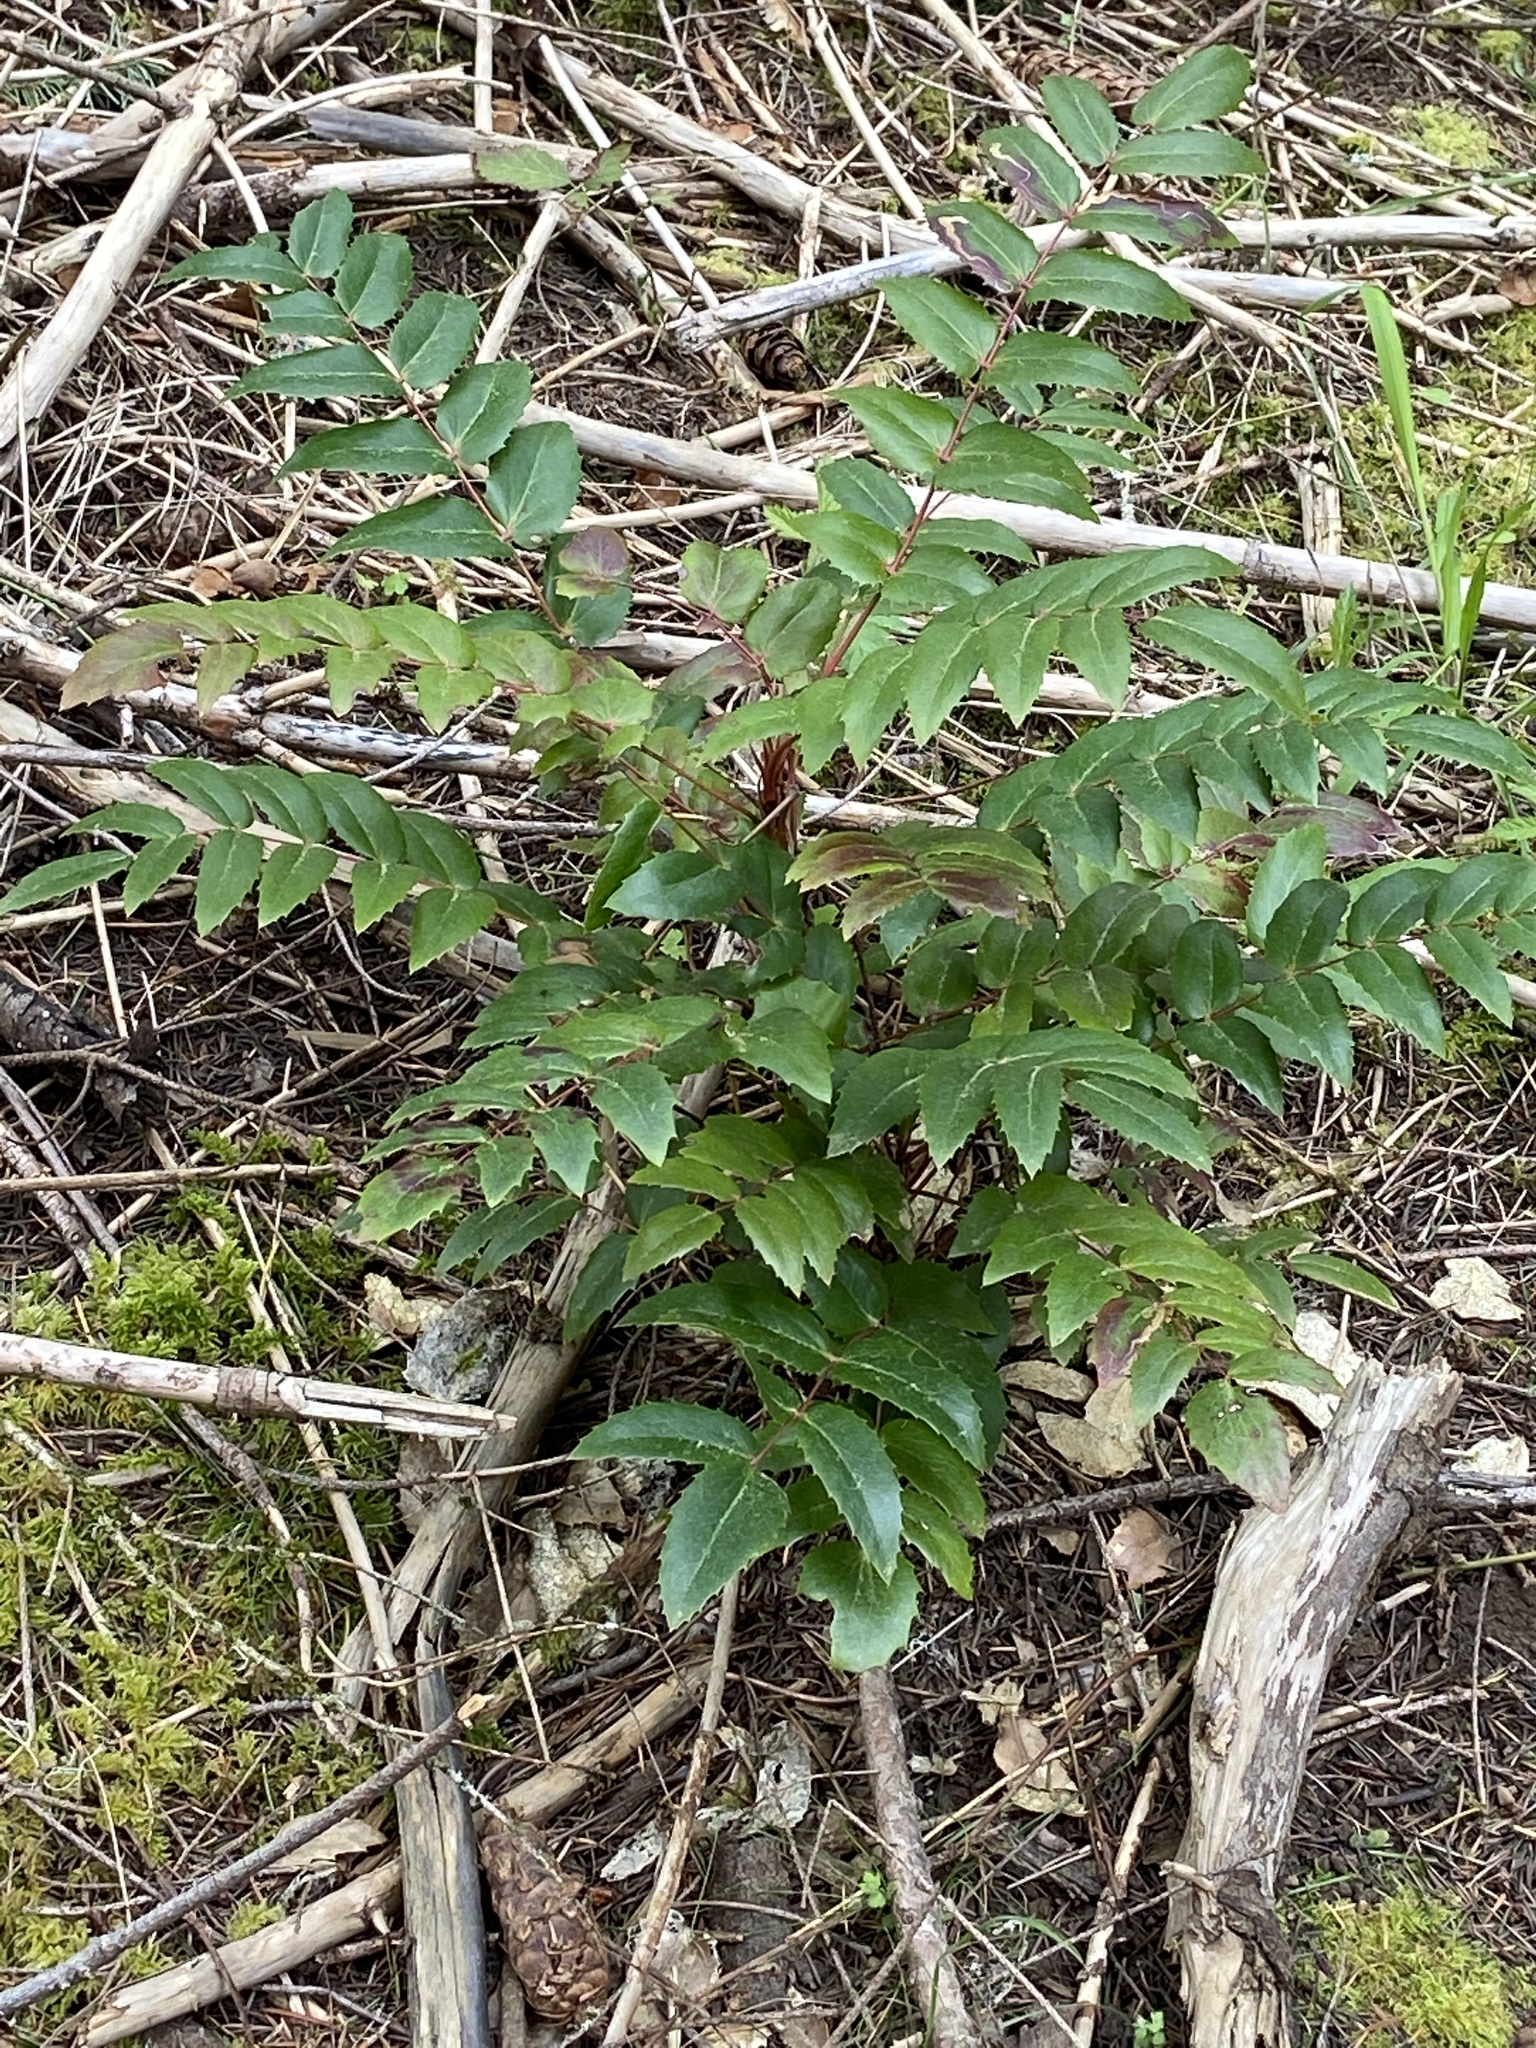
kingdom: Plantae
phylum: Tracheophyta
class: Magnoliopsida
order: Ranunculales
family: Berberidaceae
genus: Mahonia
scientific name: Mahonia nervosa
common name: Cascade oregon-grape
